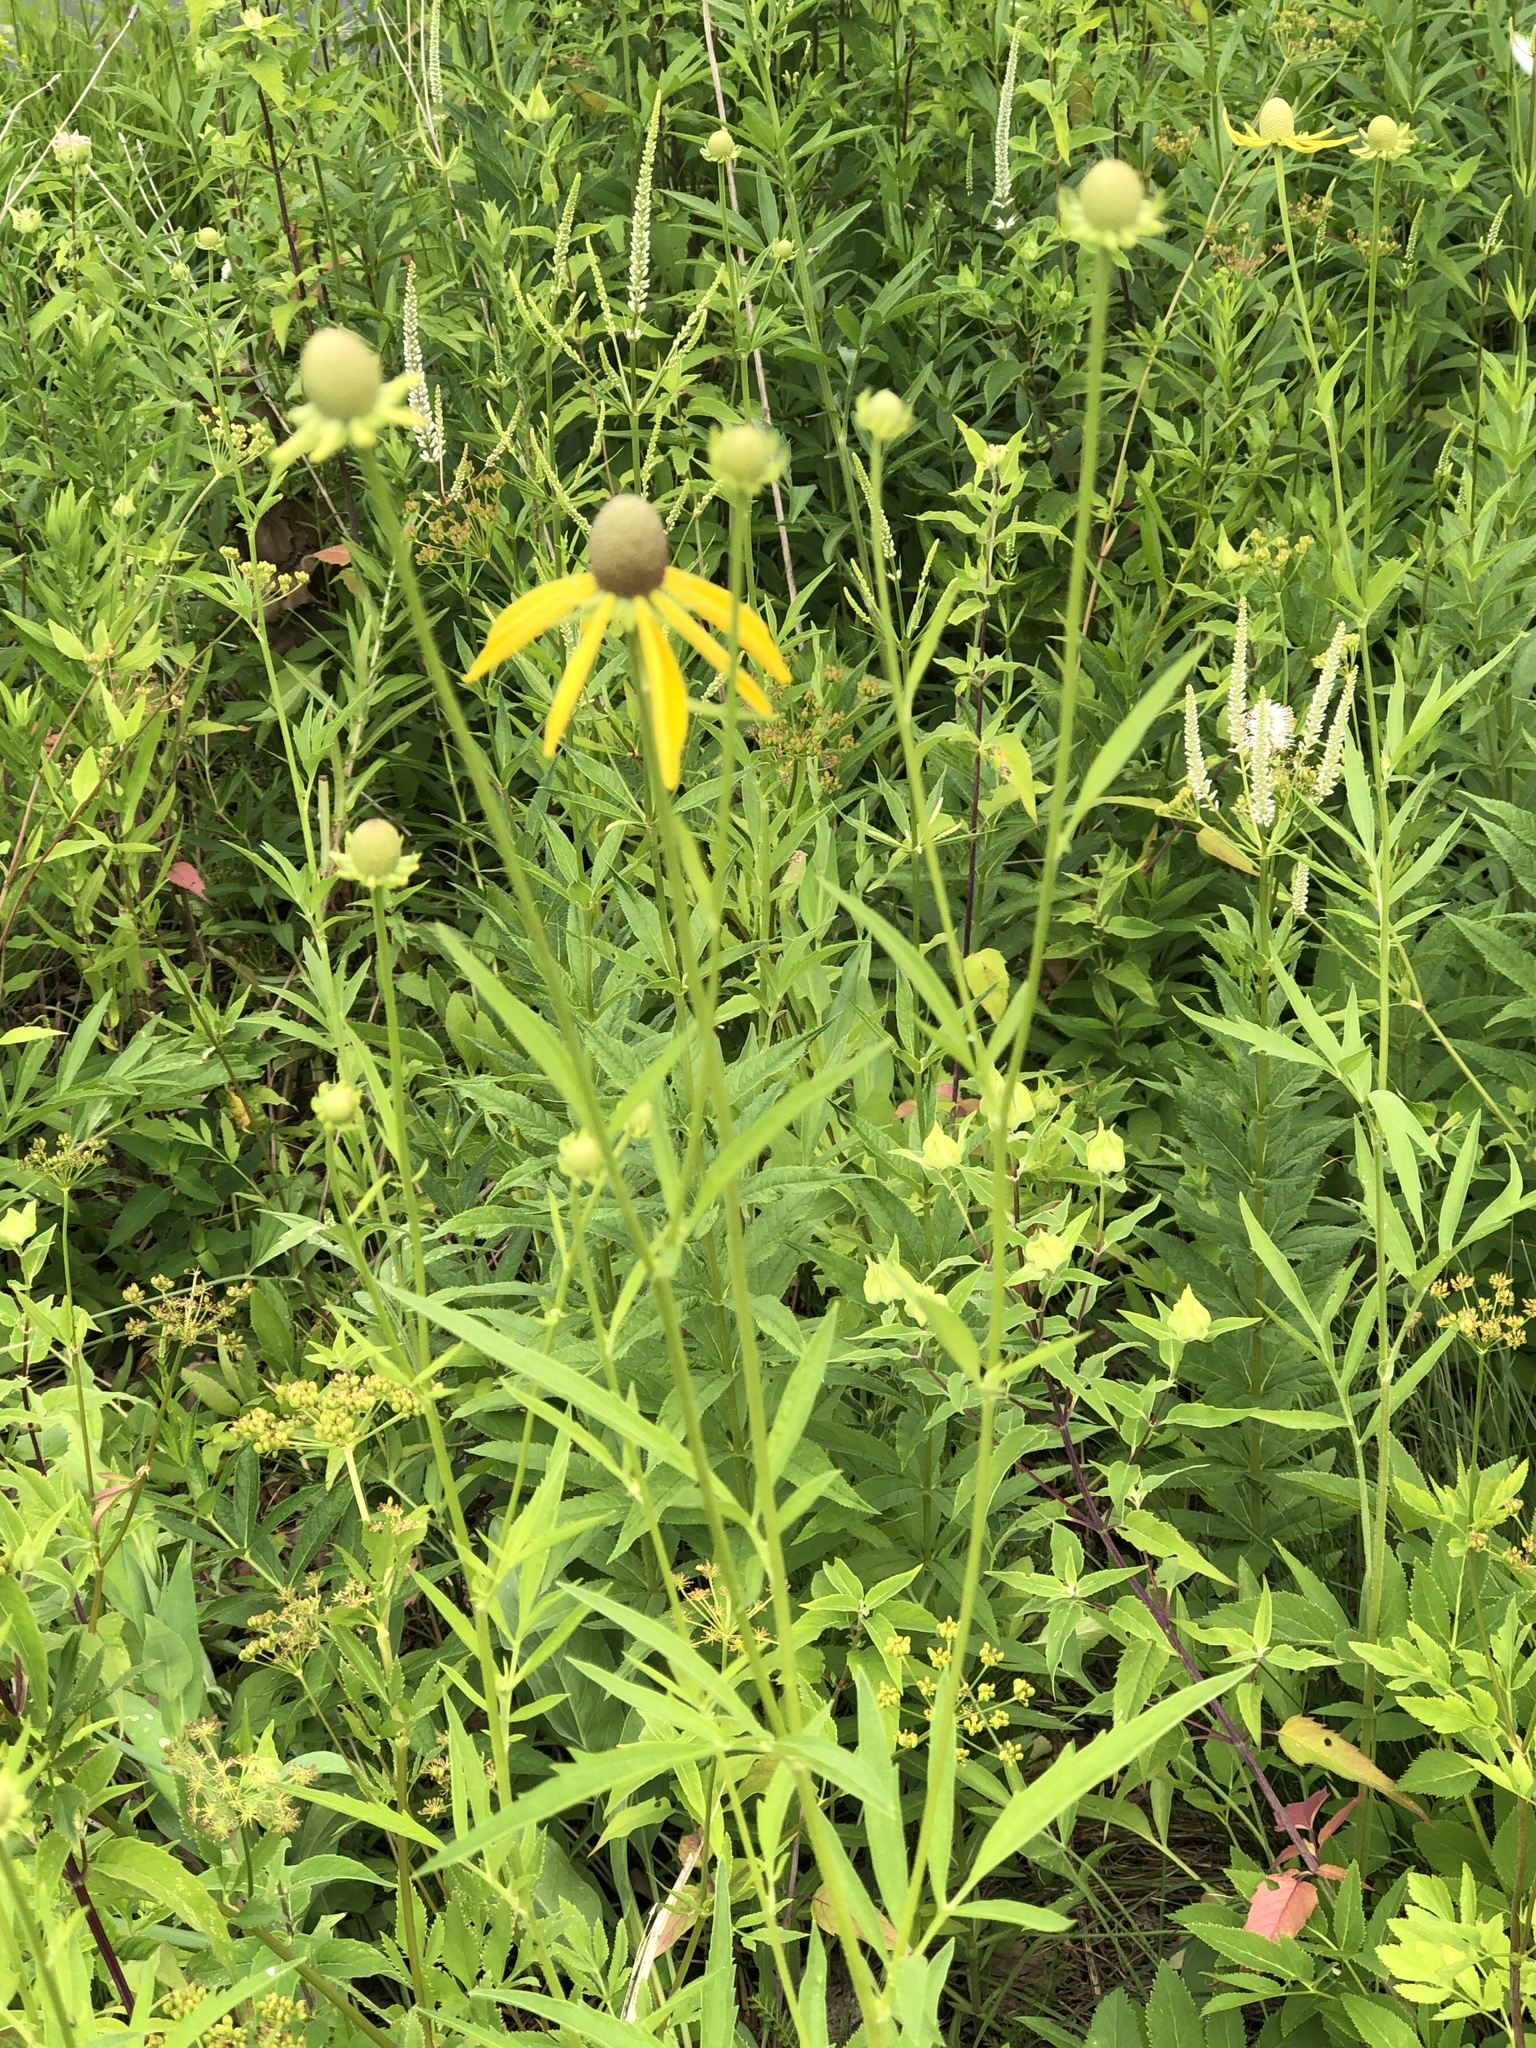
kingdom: Plantae
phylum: Tracheophyta
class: Magnoliopsida
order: Asterales
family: Asteraceae
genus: Ratibida
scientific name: Ratibida pinnata
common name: Drooping prairie-coneflower
